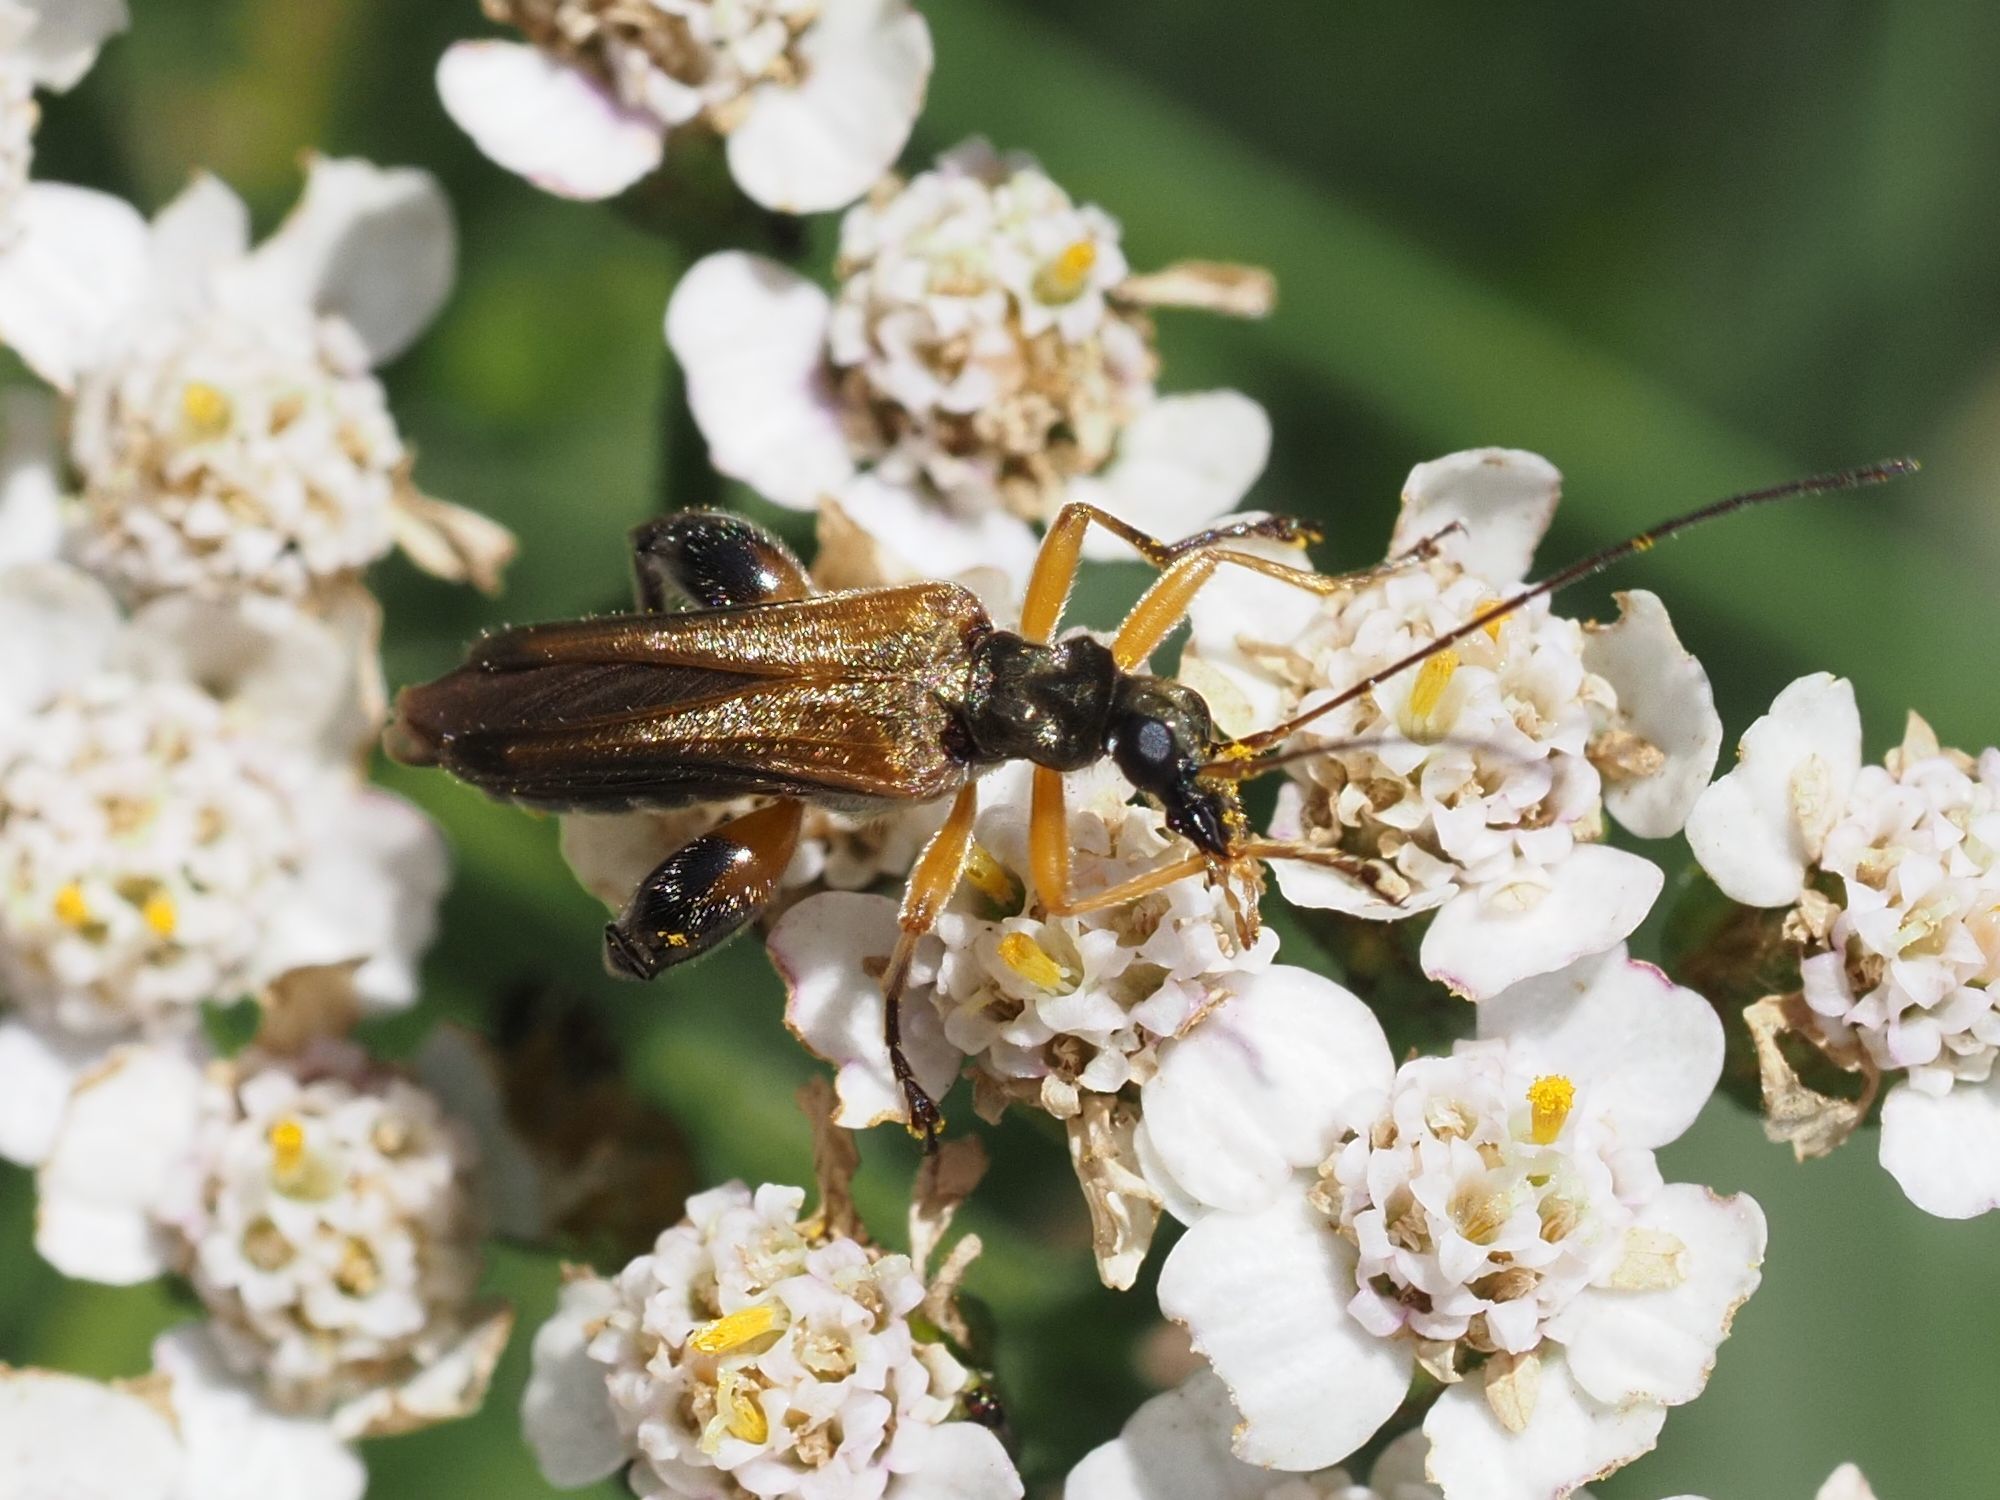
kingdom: Animalia
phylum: Arthropoda
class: Insecta
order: Coleoptera
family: Oedemeridae
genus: Oedemera
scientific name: Oedemera podagrariae
